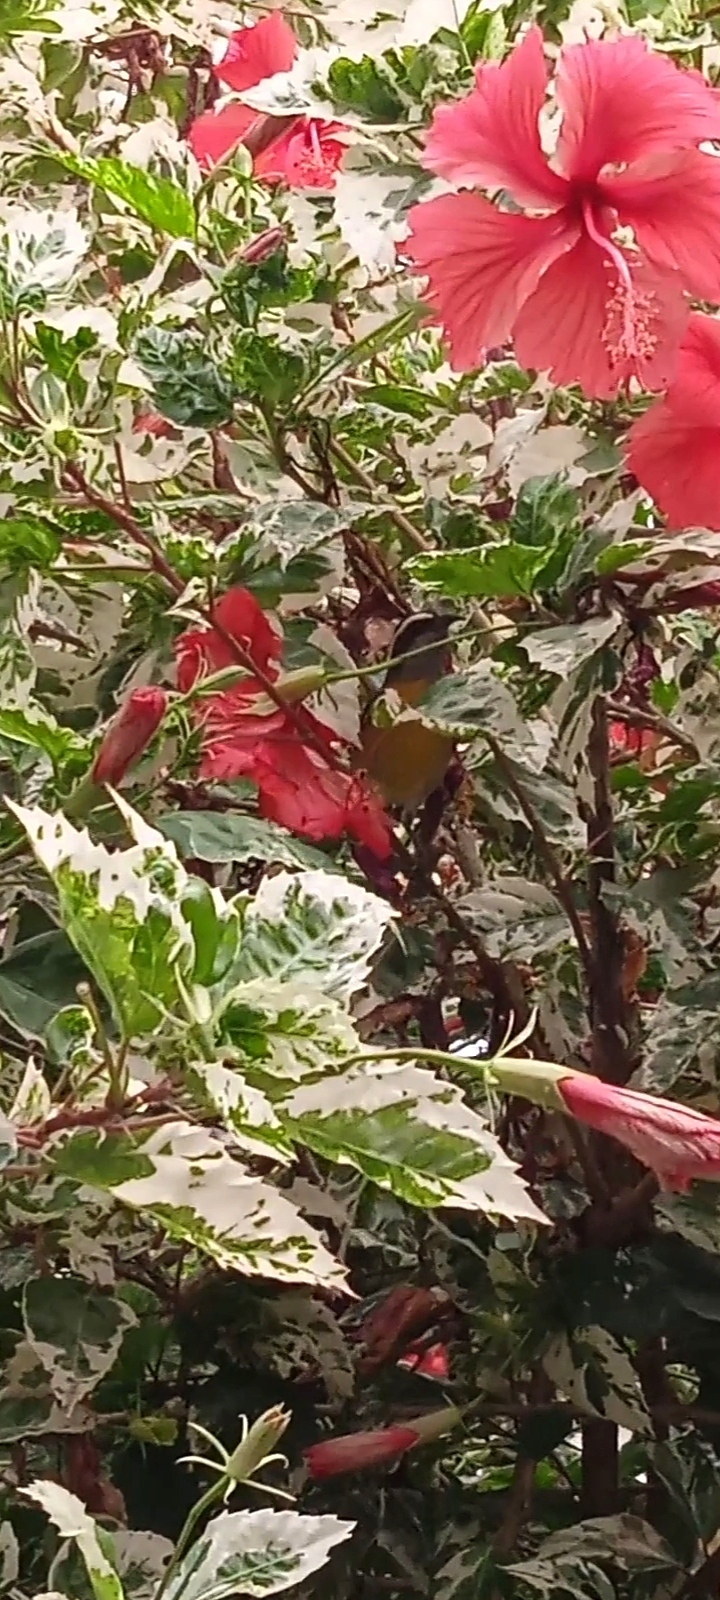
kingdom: Animalia
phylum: Chordata
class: Aves
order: Passeriformes
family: Thraupidae
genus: Coereba
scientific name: Coereba flaveola
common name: Bananaquit
